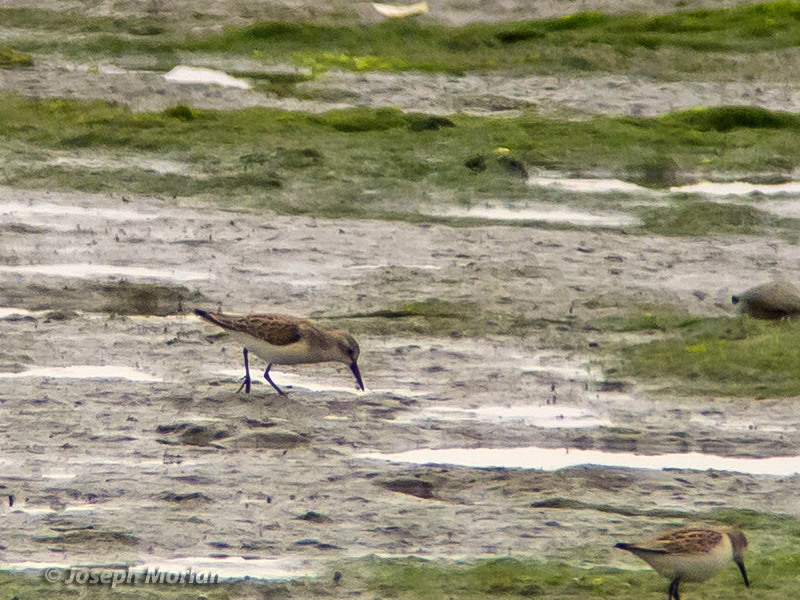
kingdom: Animalia
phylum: Chordata
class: Aves
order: Charadriiformes
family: Scolopacidae
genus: Calidris
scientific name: Calidris mauri
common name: Western sandpiper
